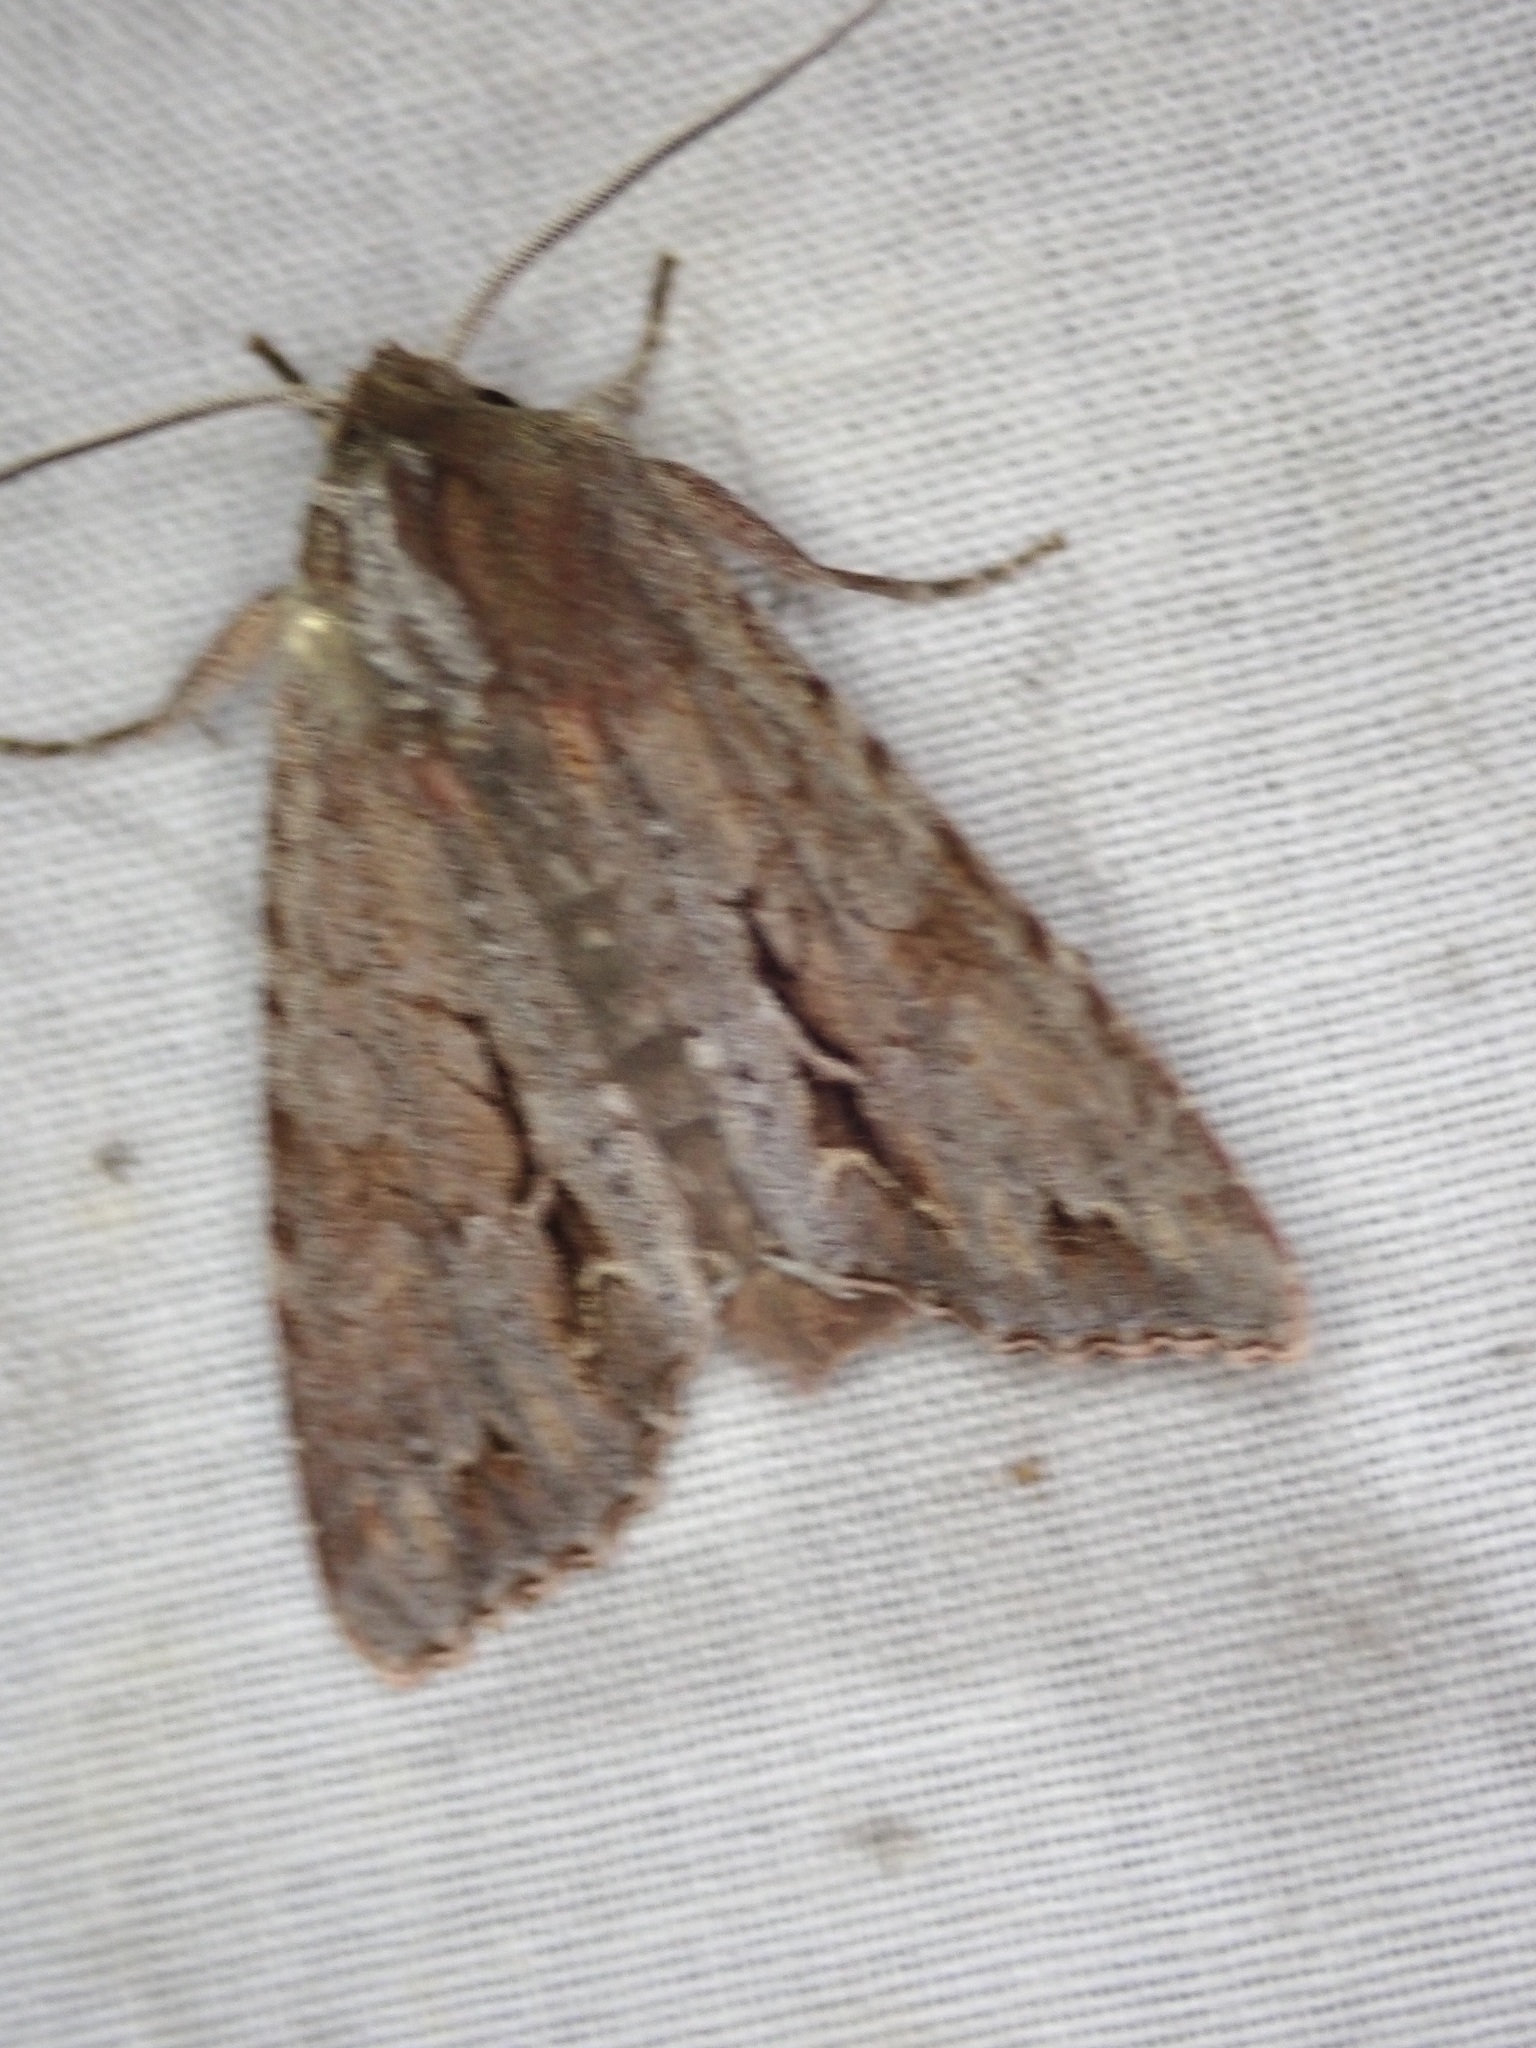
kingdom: Animalia
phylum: Arthropoda
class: Insecta
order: Lepidoptera
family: Noctuidae
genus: Ichneutica
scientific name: Ichneutica
